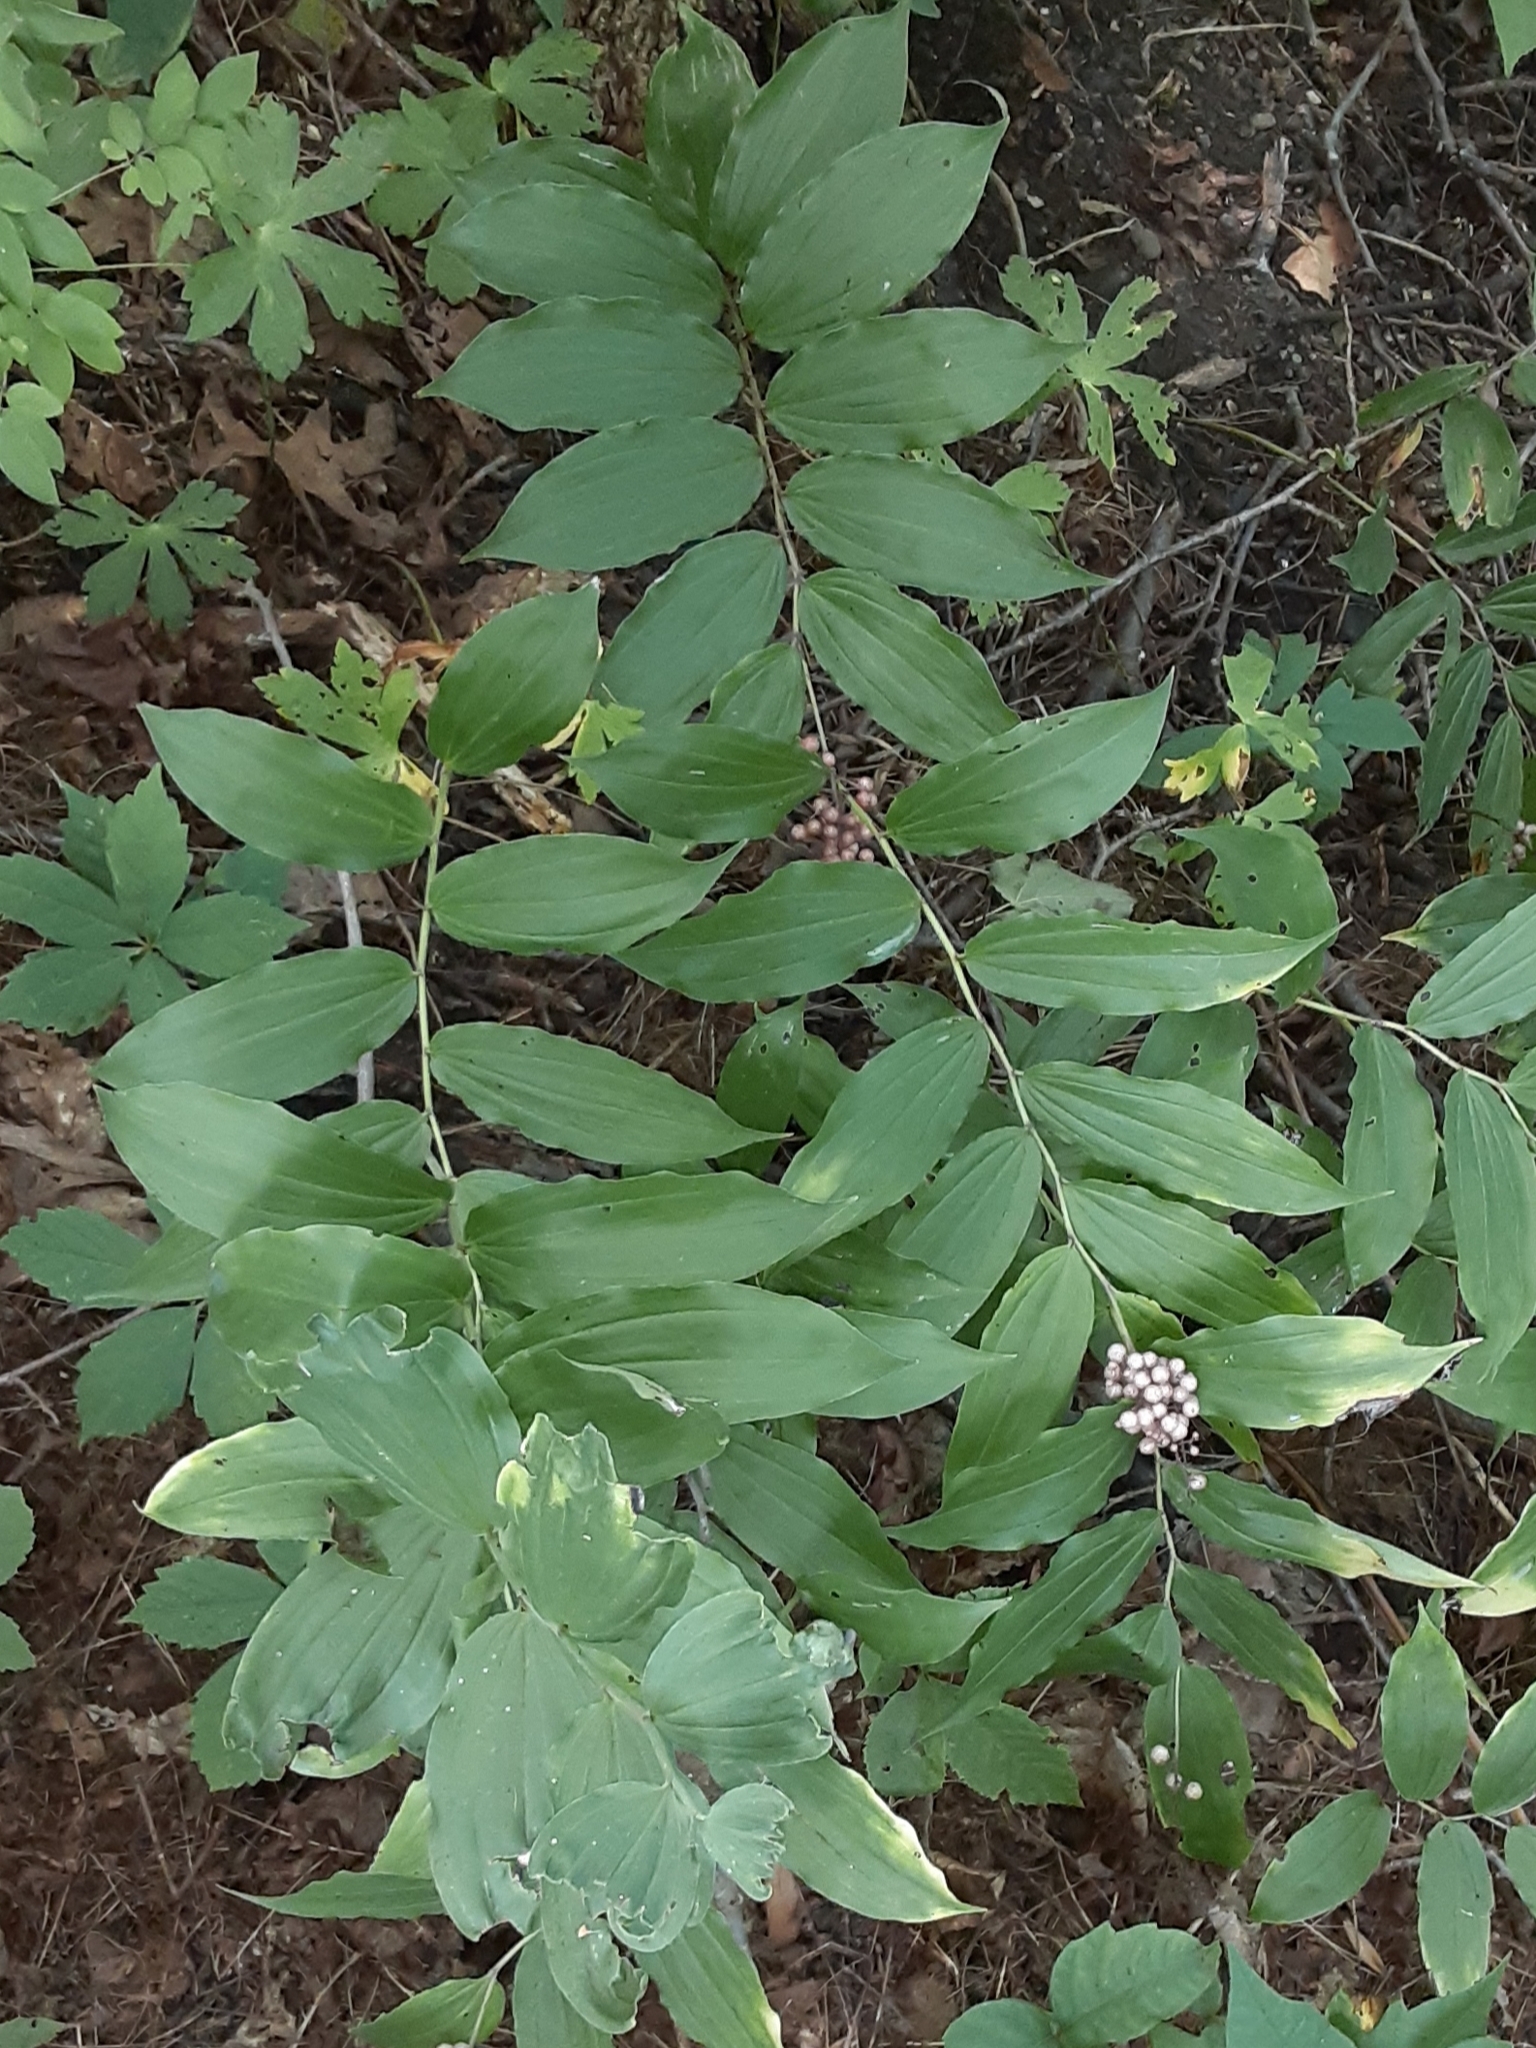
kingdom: Plantae
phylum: Tracheophyta
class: Liliopsida
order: Asparagales
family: Asparagaceae
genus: Maianthemum
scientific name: Maianthemum racemosum
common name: False spikenard
